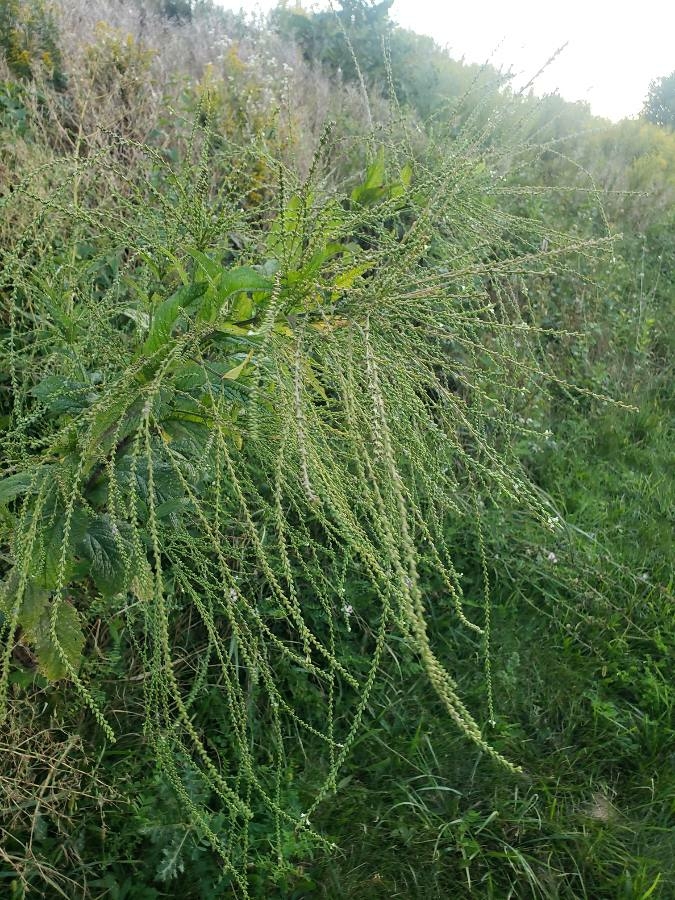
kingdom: Plantae
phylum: Tracheophyta
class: Magnoliopsida
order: Lamiales
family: Verbenaceae
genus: Verbena
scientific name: Verbena urticifolia
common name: Nettle-leaved vervain
